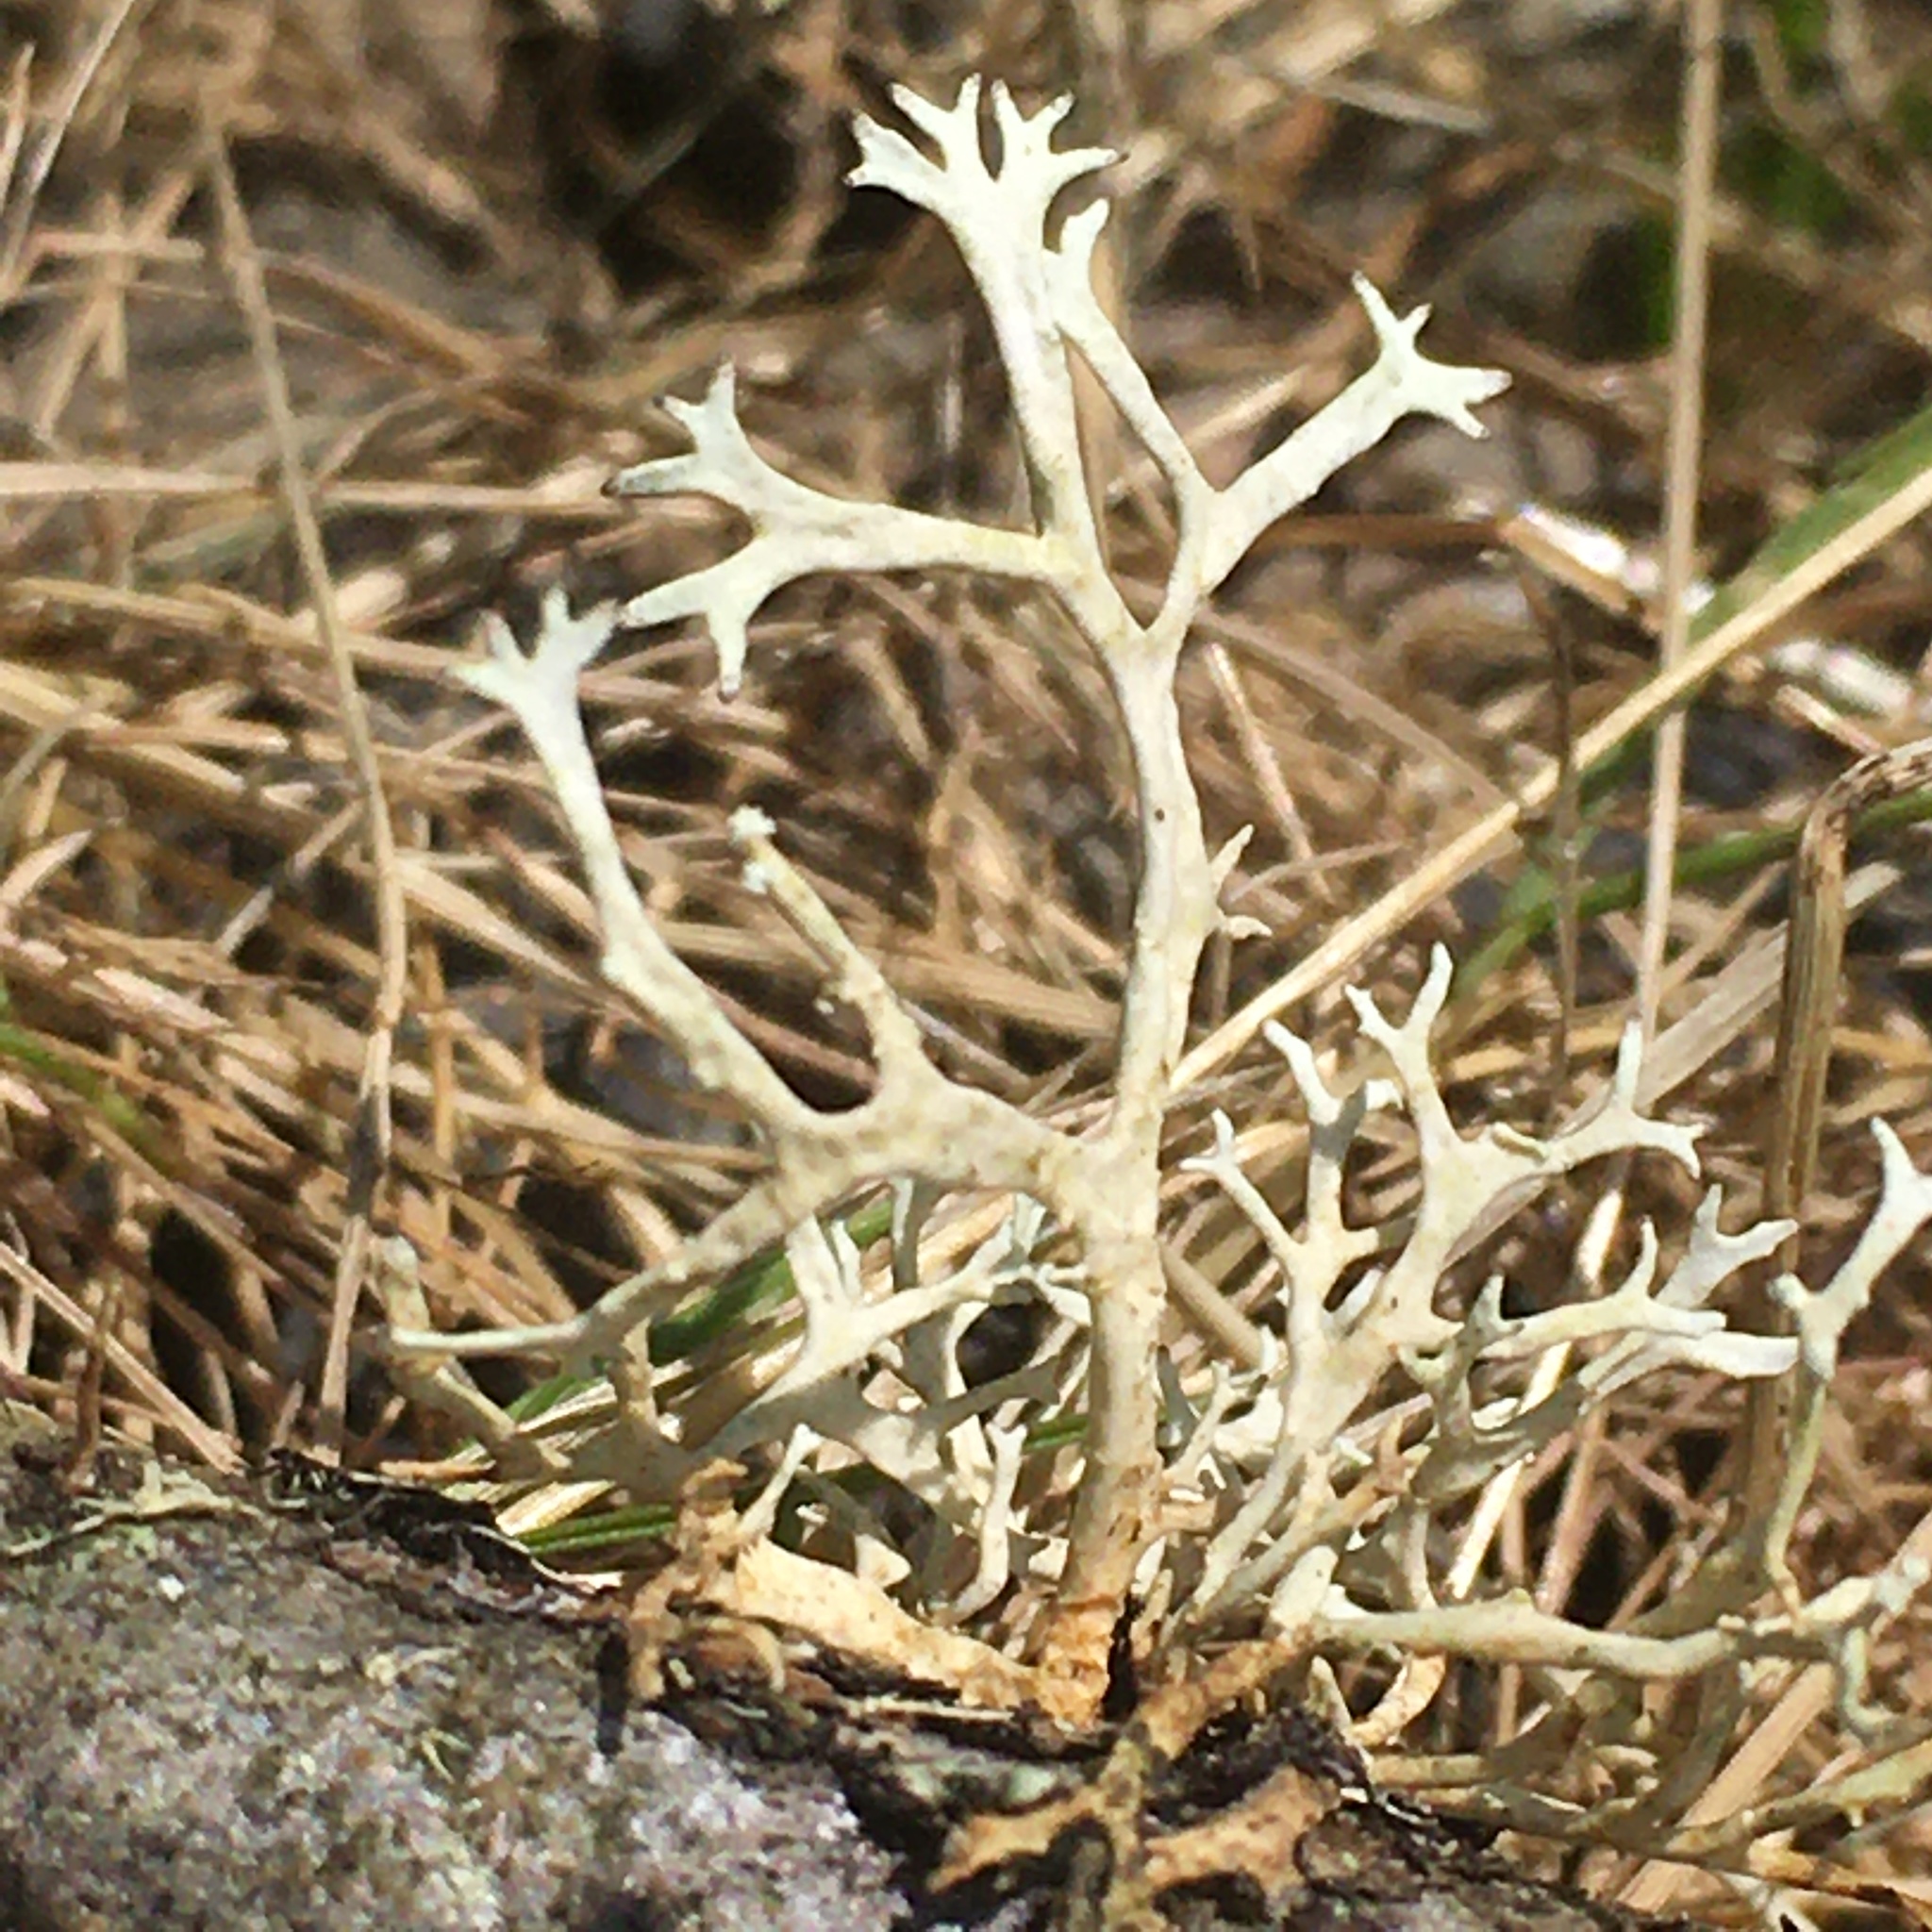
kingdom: Fungi
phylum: Ascomycota
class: Lecanoromycetes
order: Lecanorales
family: Parmeliaceae
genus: Evernia
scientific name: Evernia prunastri
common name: Oak moss
